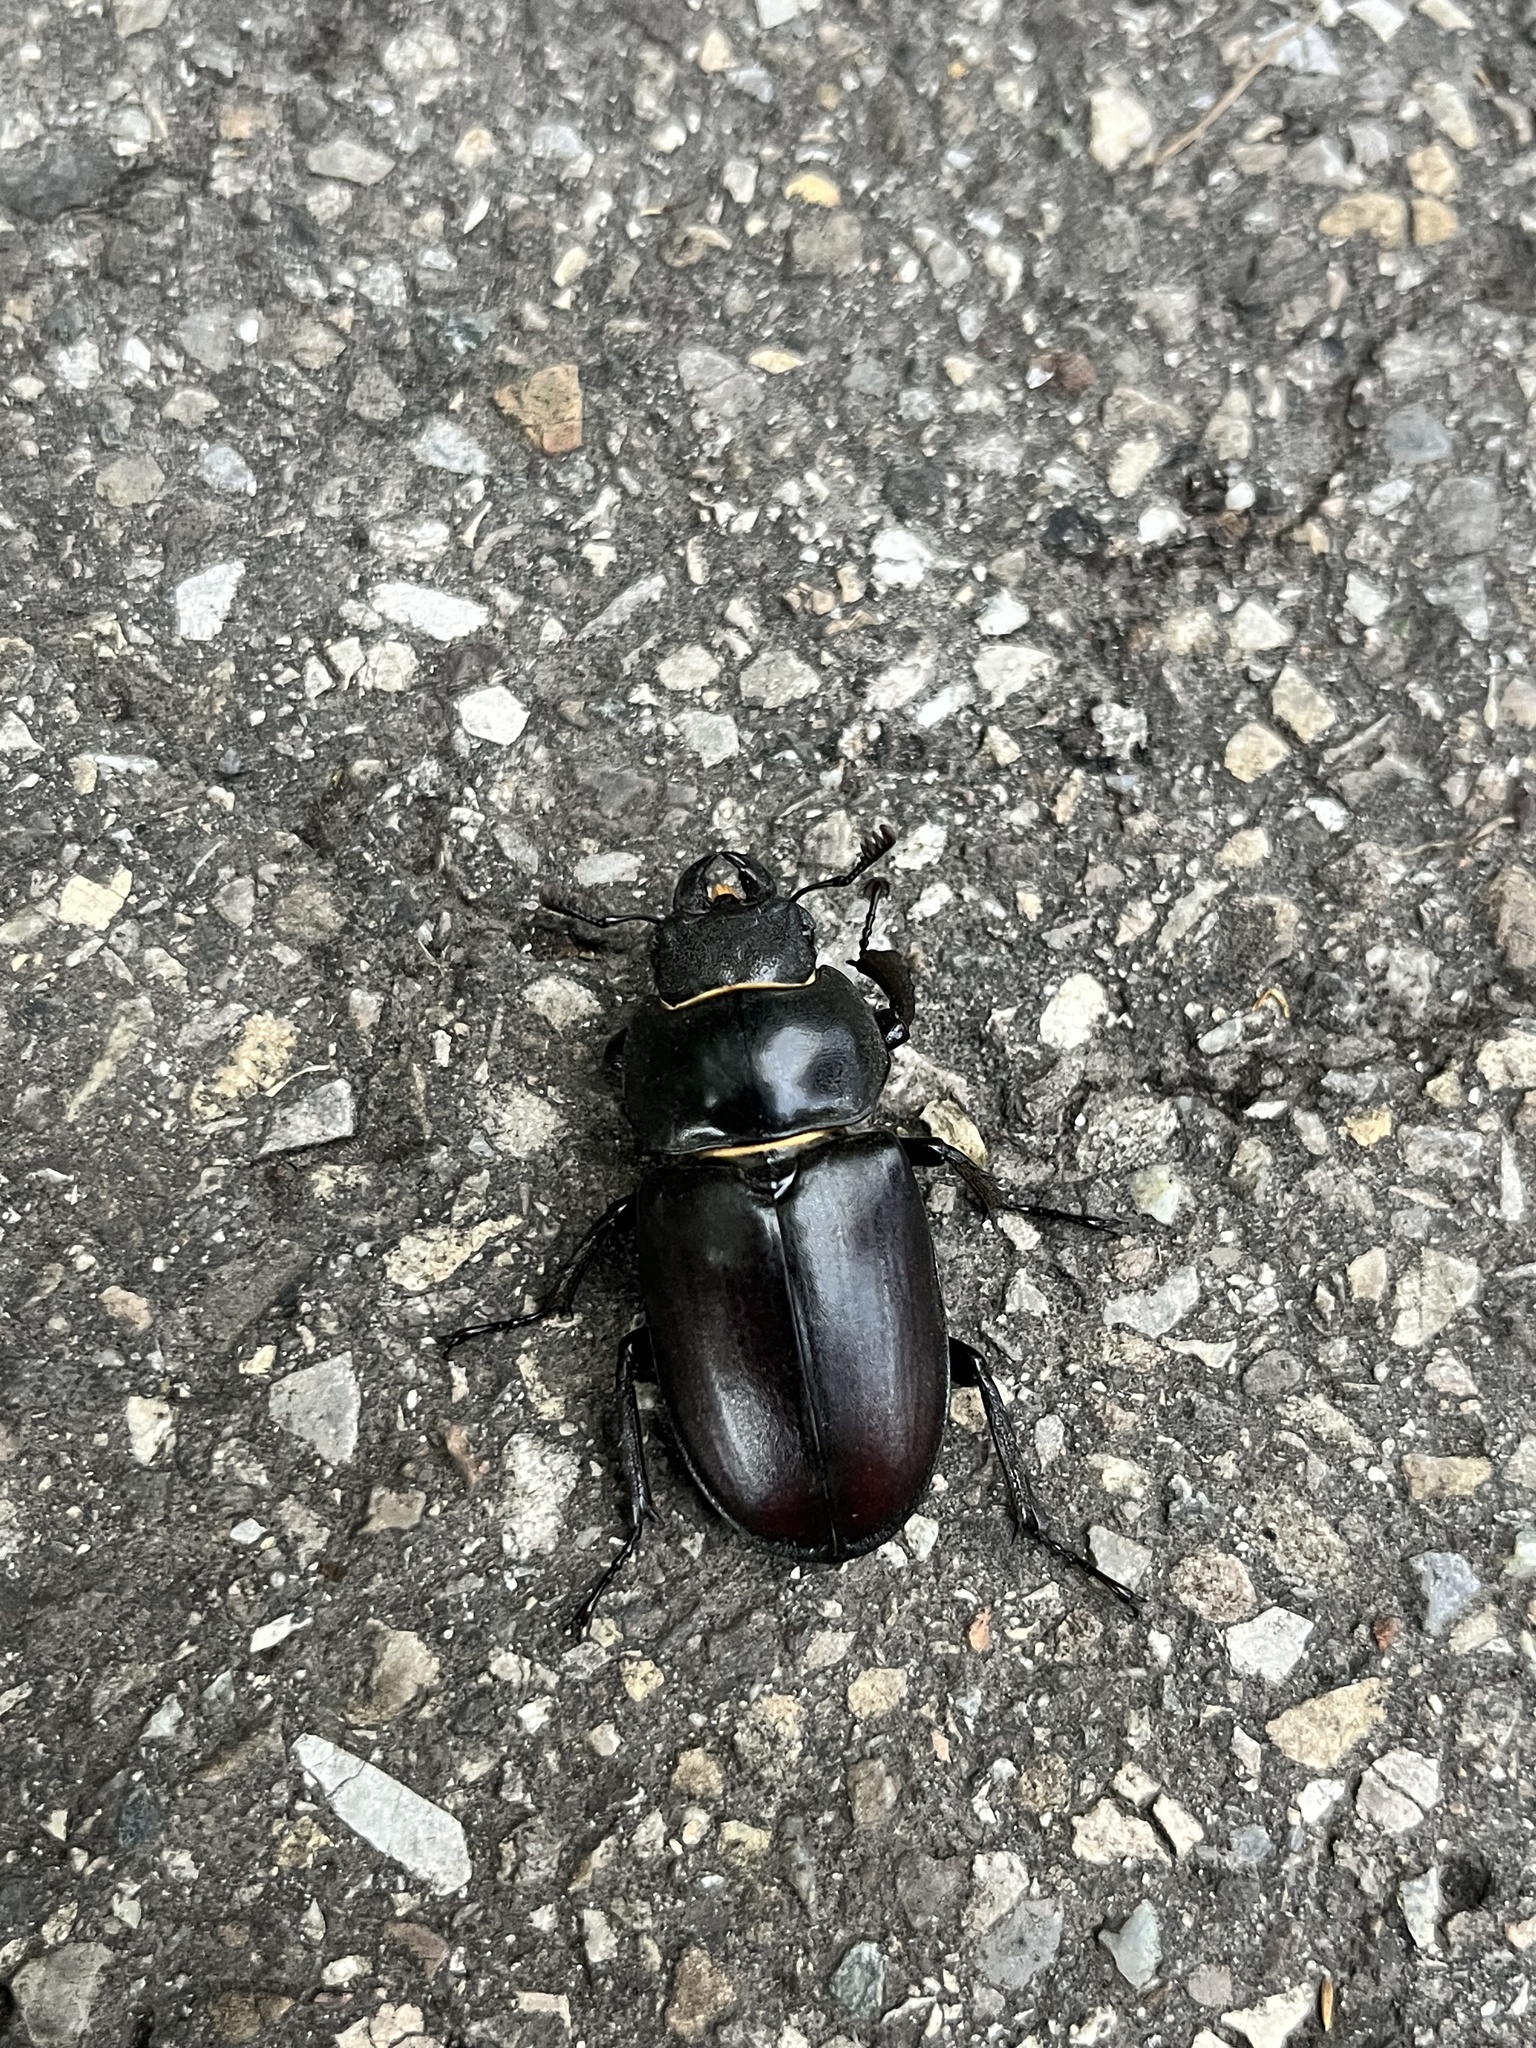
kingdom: Animalia
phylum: Arthropoda
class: Insecta
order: Coleoptera
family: Lucanidae
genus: Lucanus
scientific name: Lucanus cervus
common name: Stag beetle
